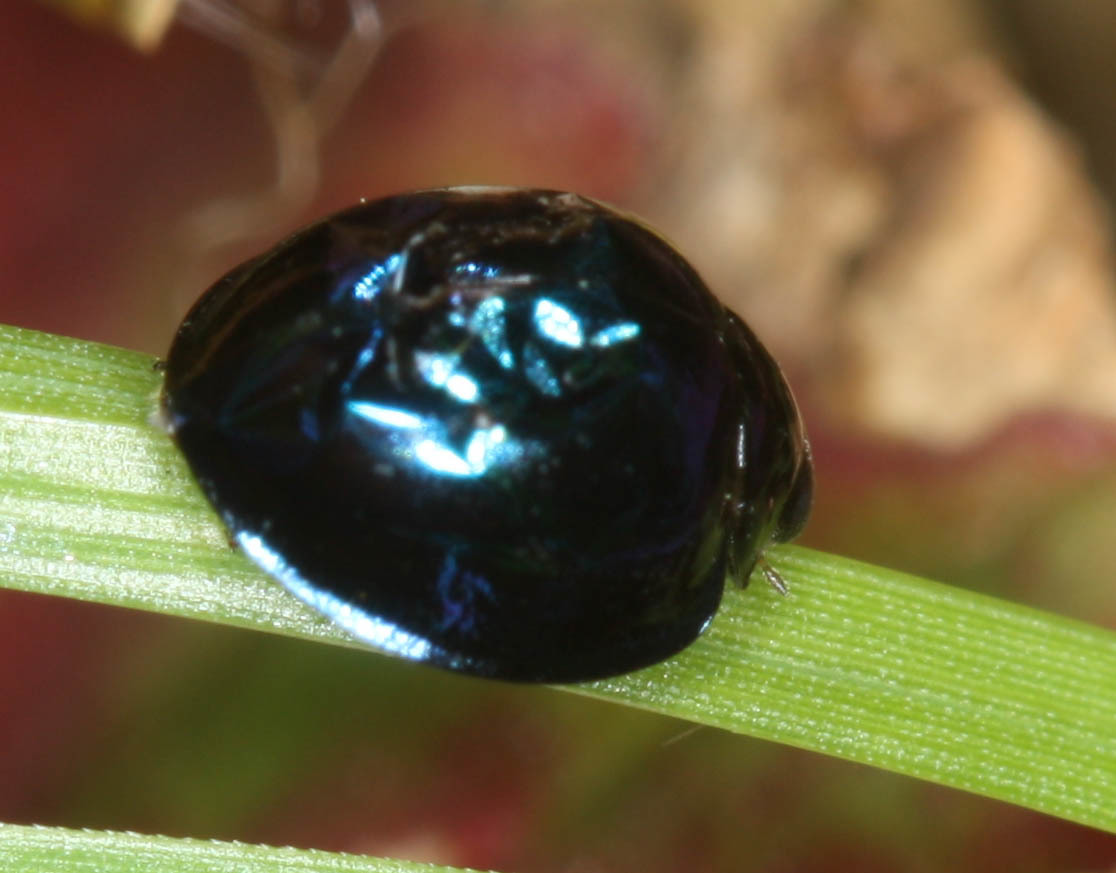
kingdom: Animalia
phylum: Arthropoda
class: Insecta
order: Coleoptera
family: Coccinellidae
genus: Halmus
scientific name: Halmus chalybeus
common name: Steel blue ladybird beetle
